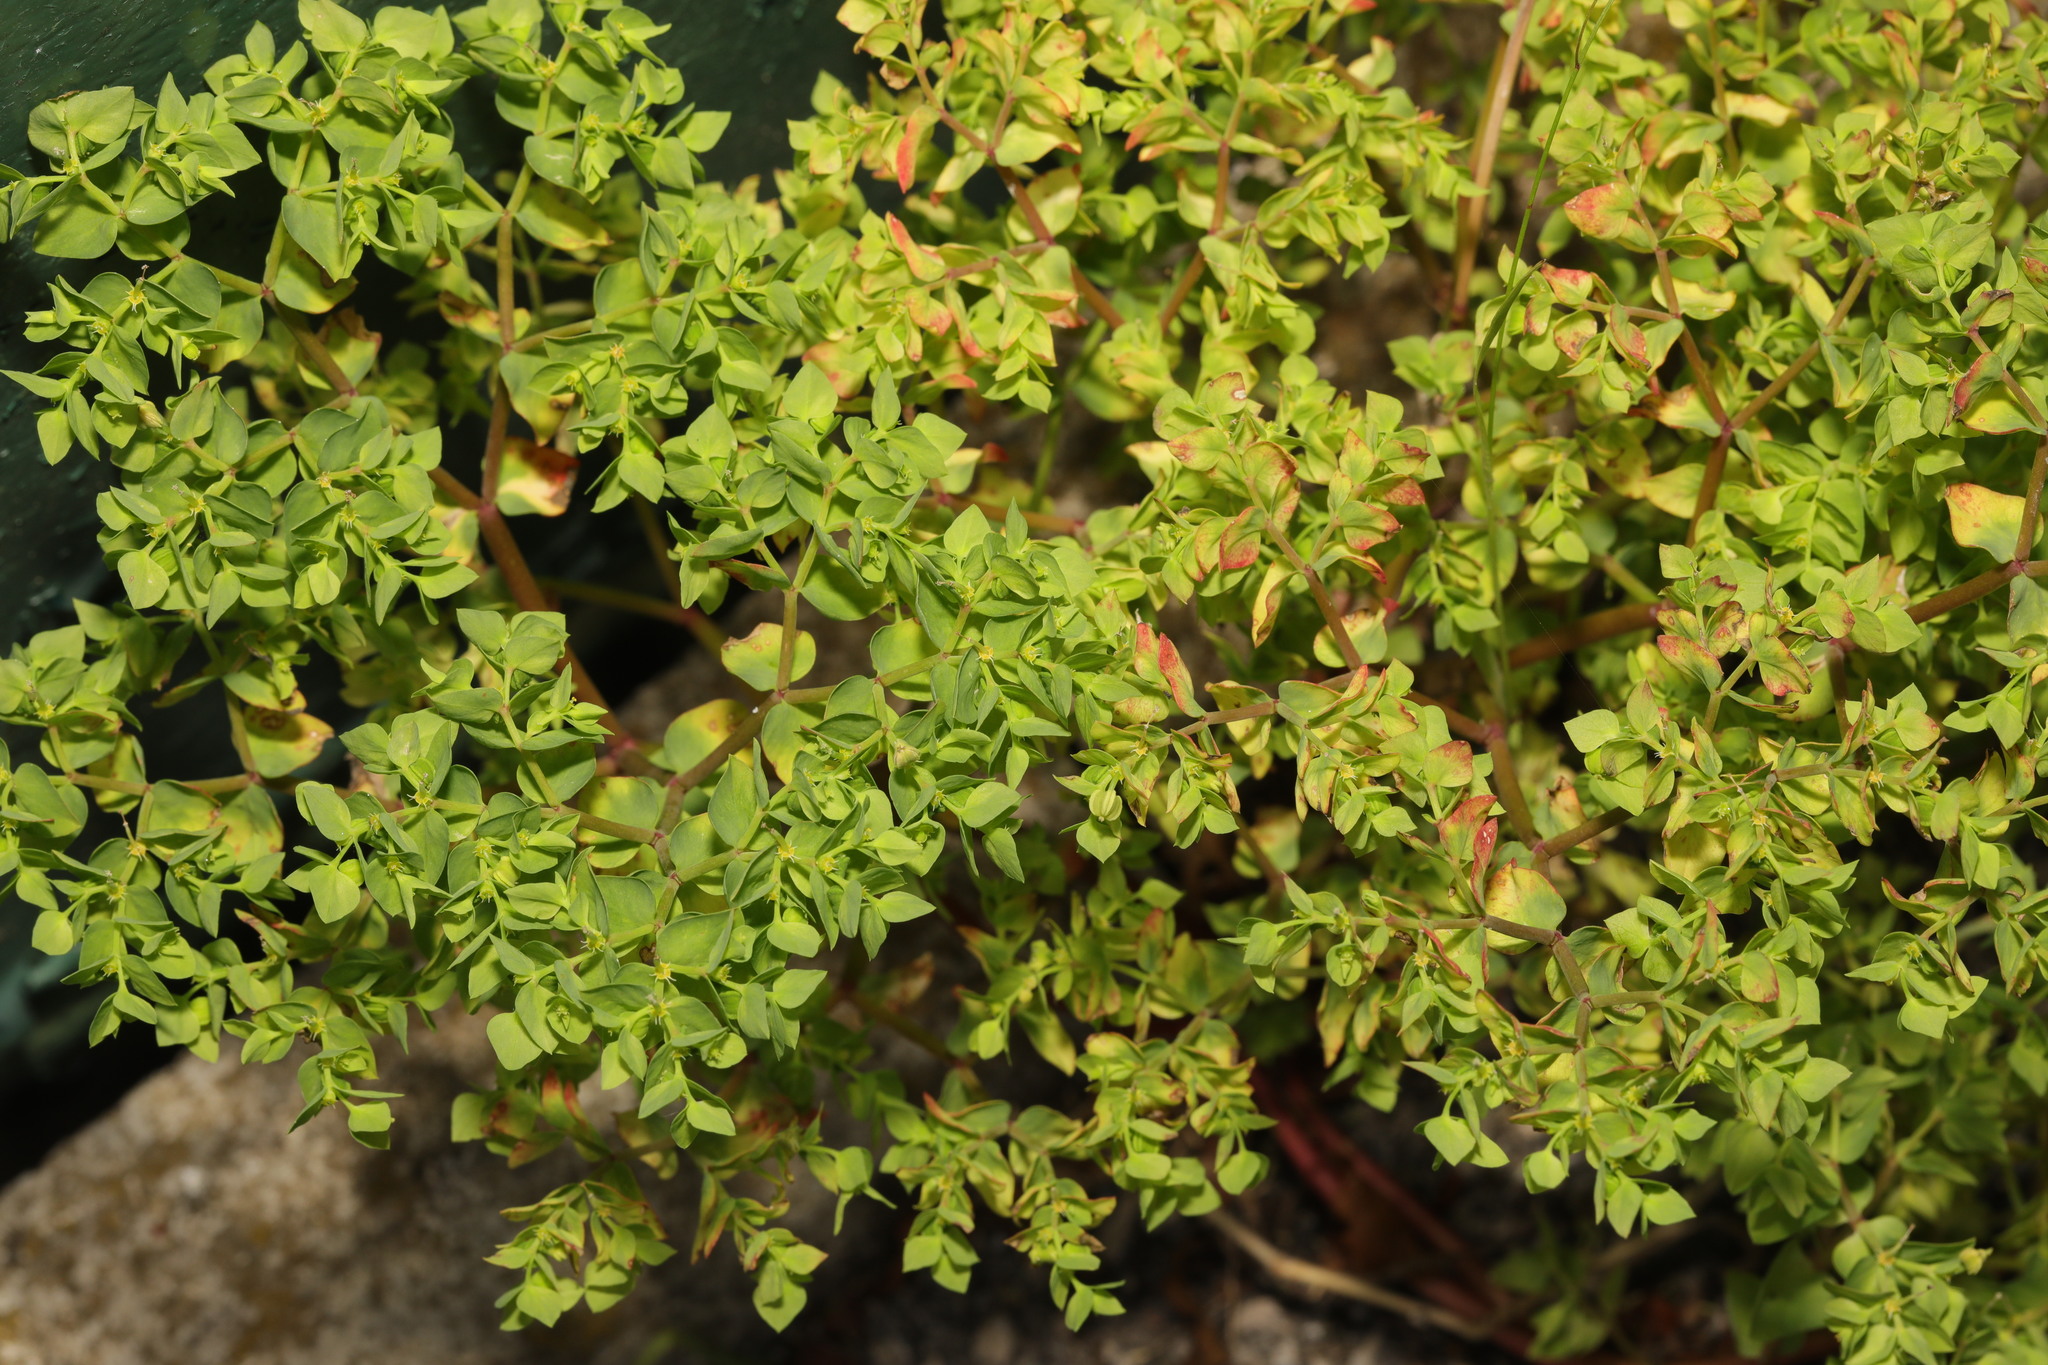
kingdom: Plantae
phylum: Tracheophyta
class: Magnoliopsida
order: Malpighiales
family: Euphorbiaceae
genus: Euphorbia
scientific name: Euphorbia peplus
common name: Petty spurge
